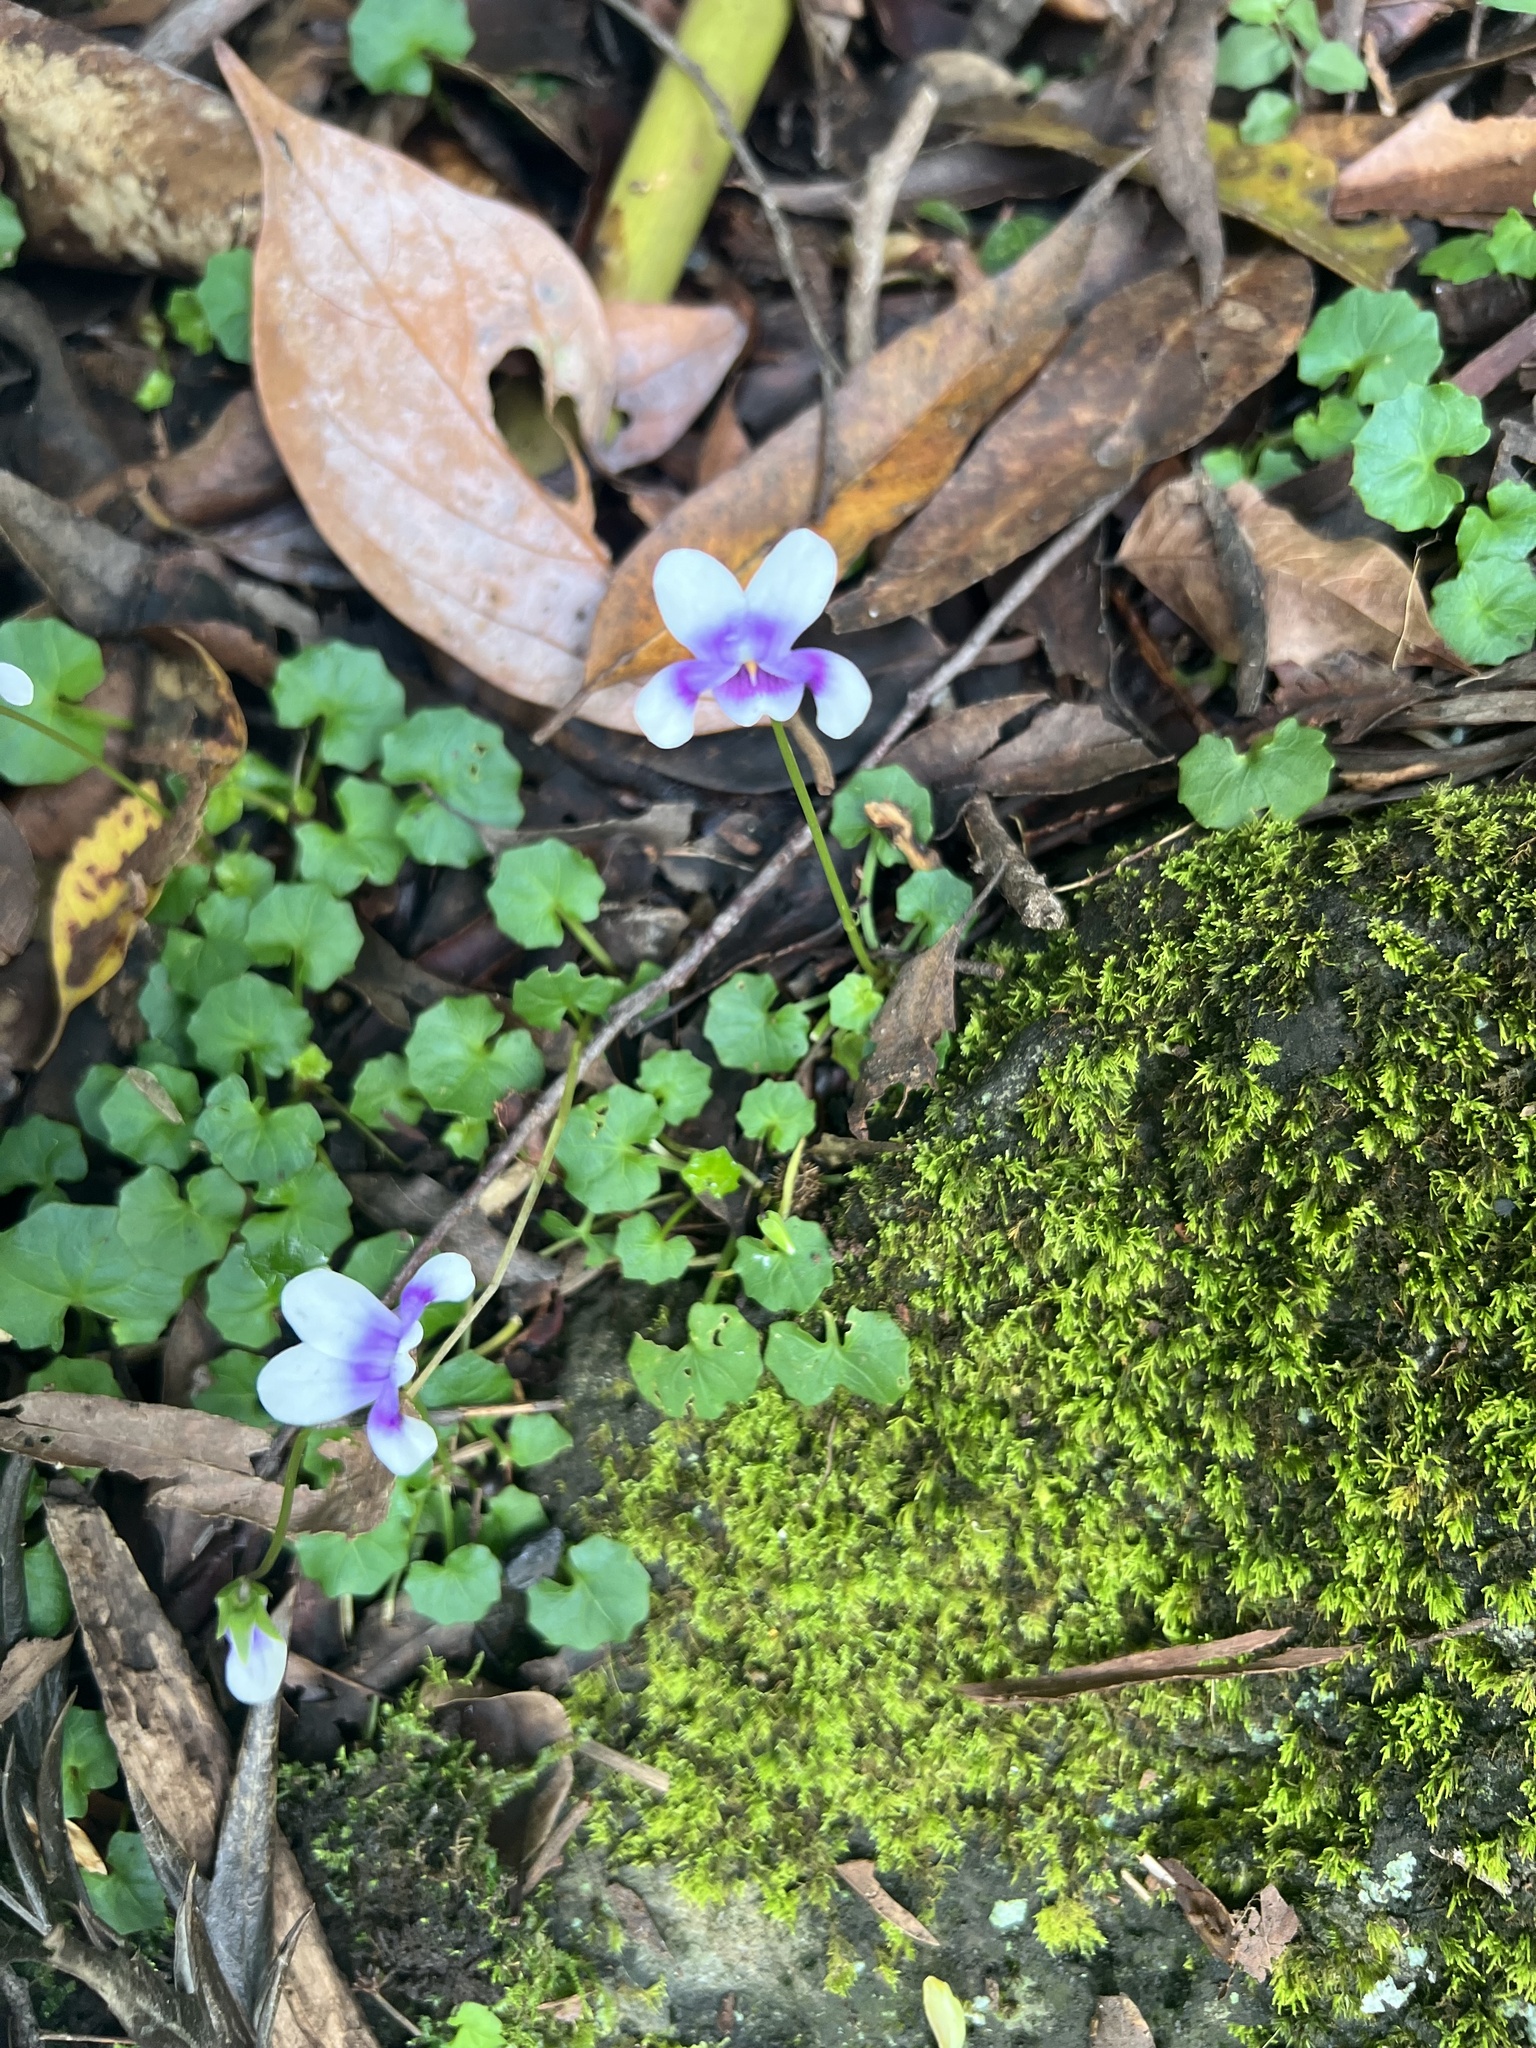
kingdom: Plantae
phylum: Tracheophyta
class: Magnoliopsida
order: Malpighiales
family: Violaceae
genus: Viola
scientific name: Viola hederacea
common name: Australian violet
